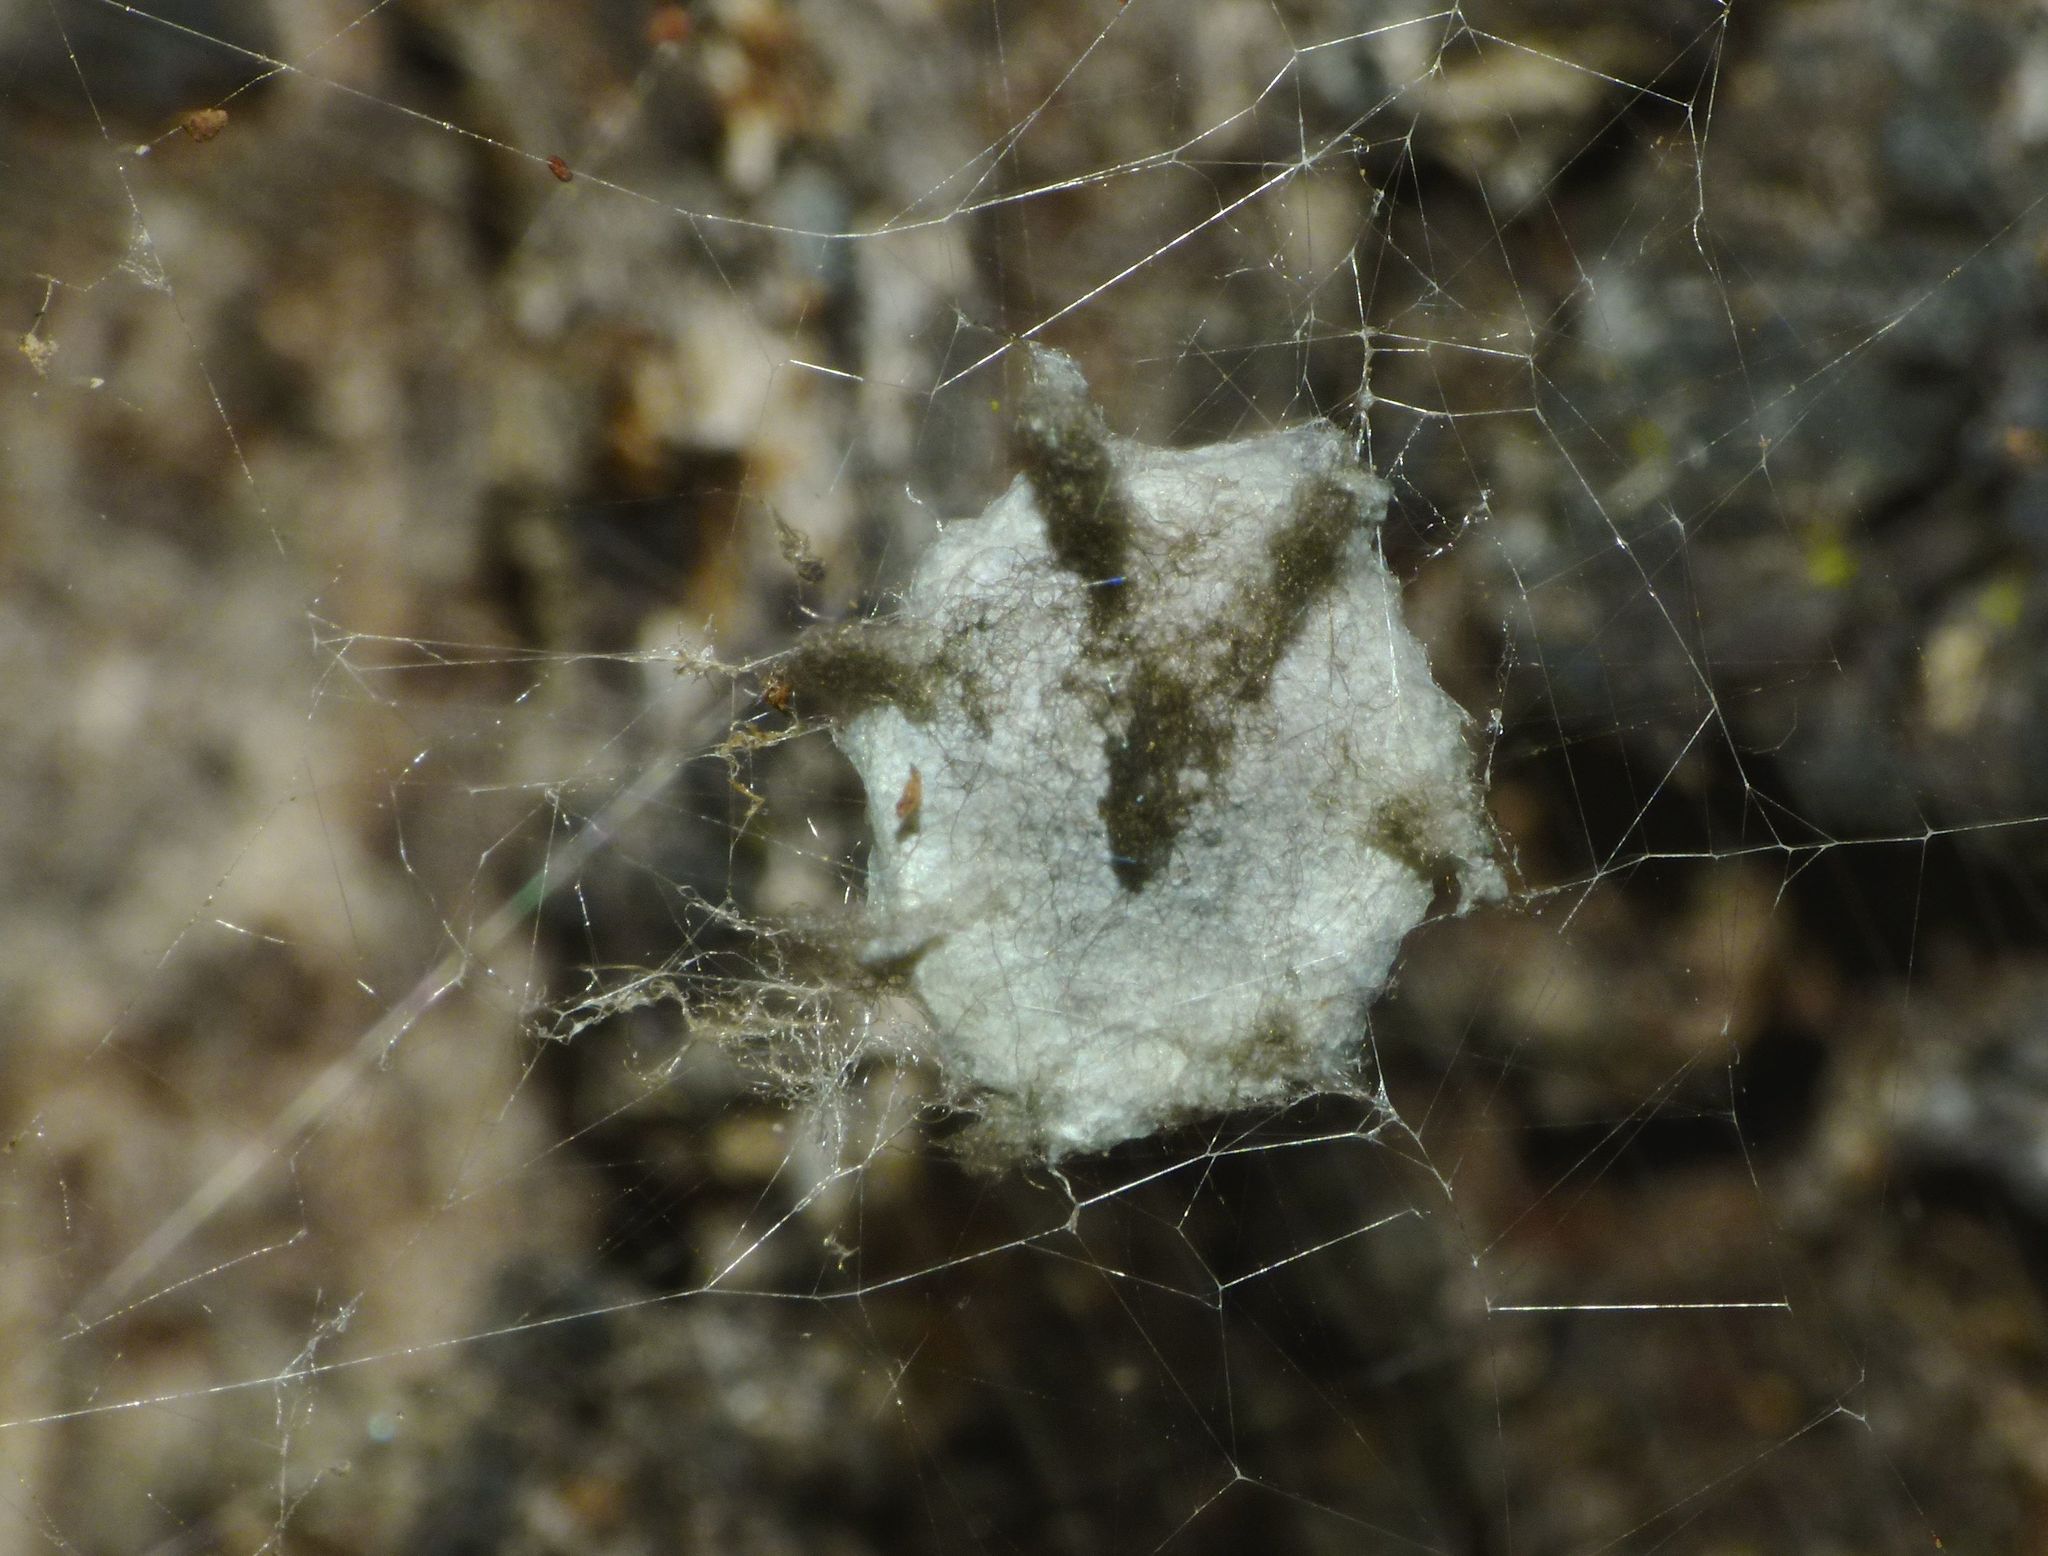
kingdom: Animalia
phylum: Arthropoda
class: Arachnida
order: Araneae
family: Araneidae
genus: Argiope
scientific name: Argiope ocyaloides
